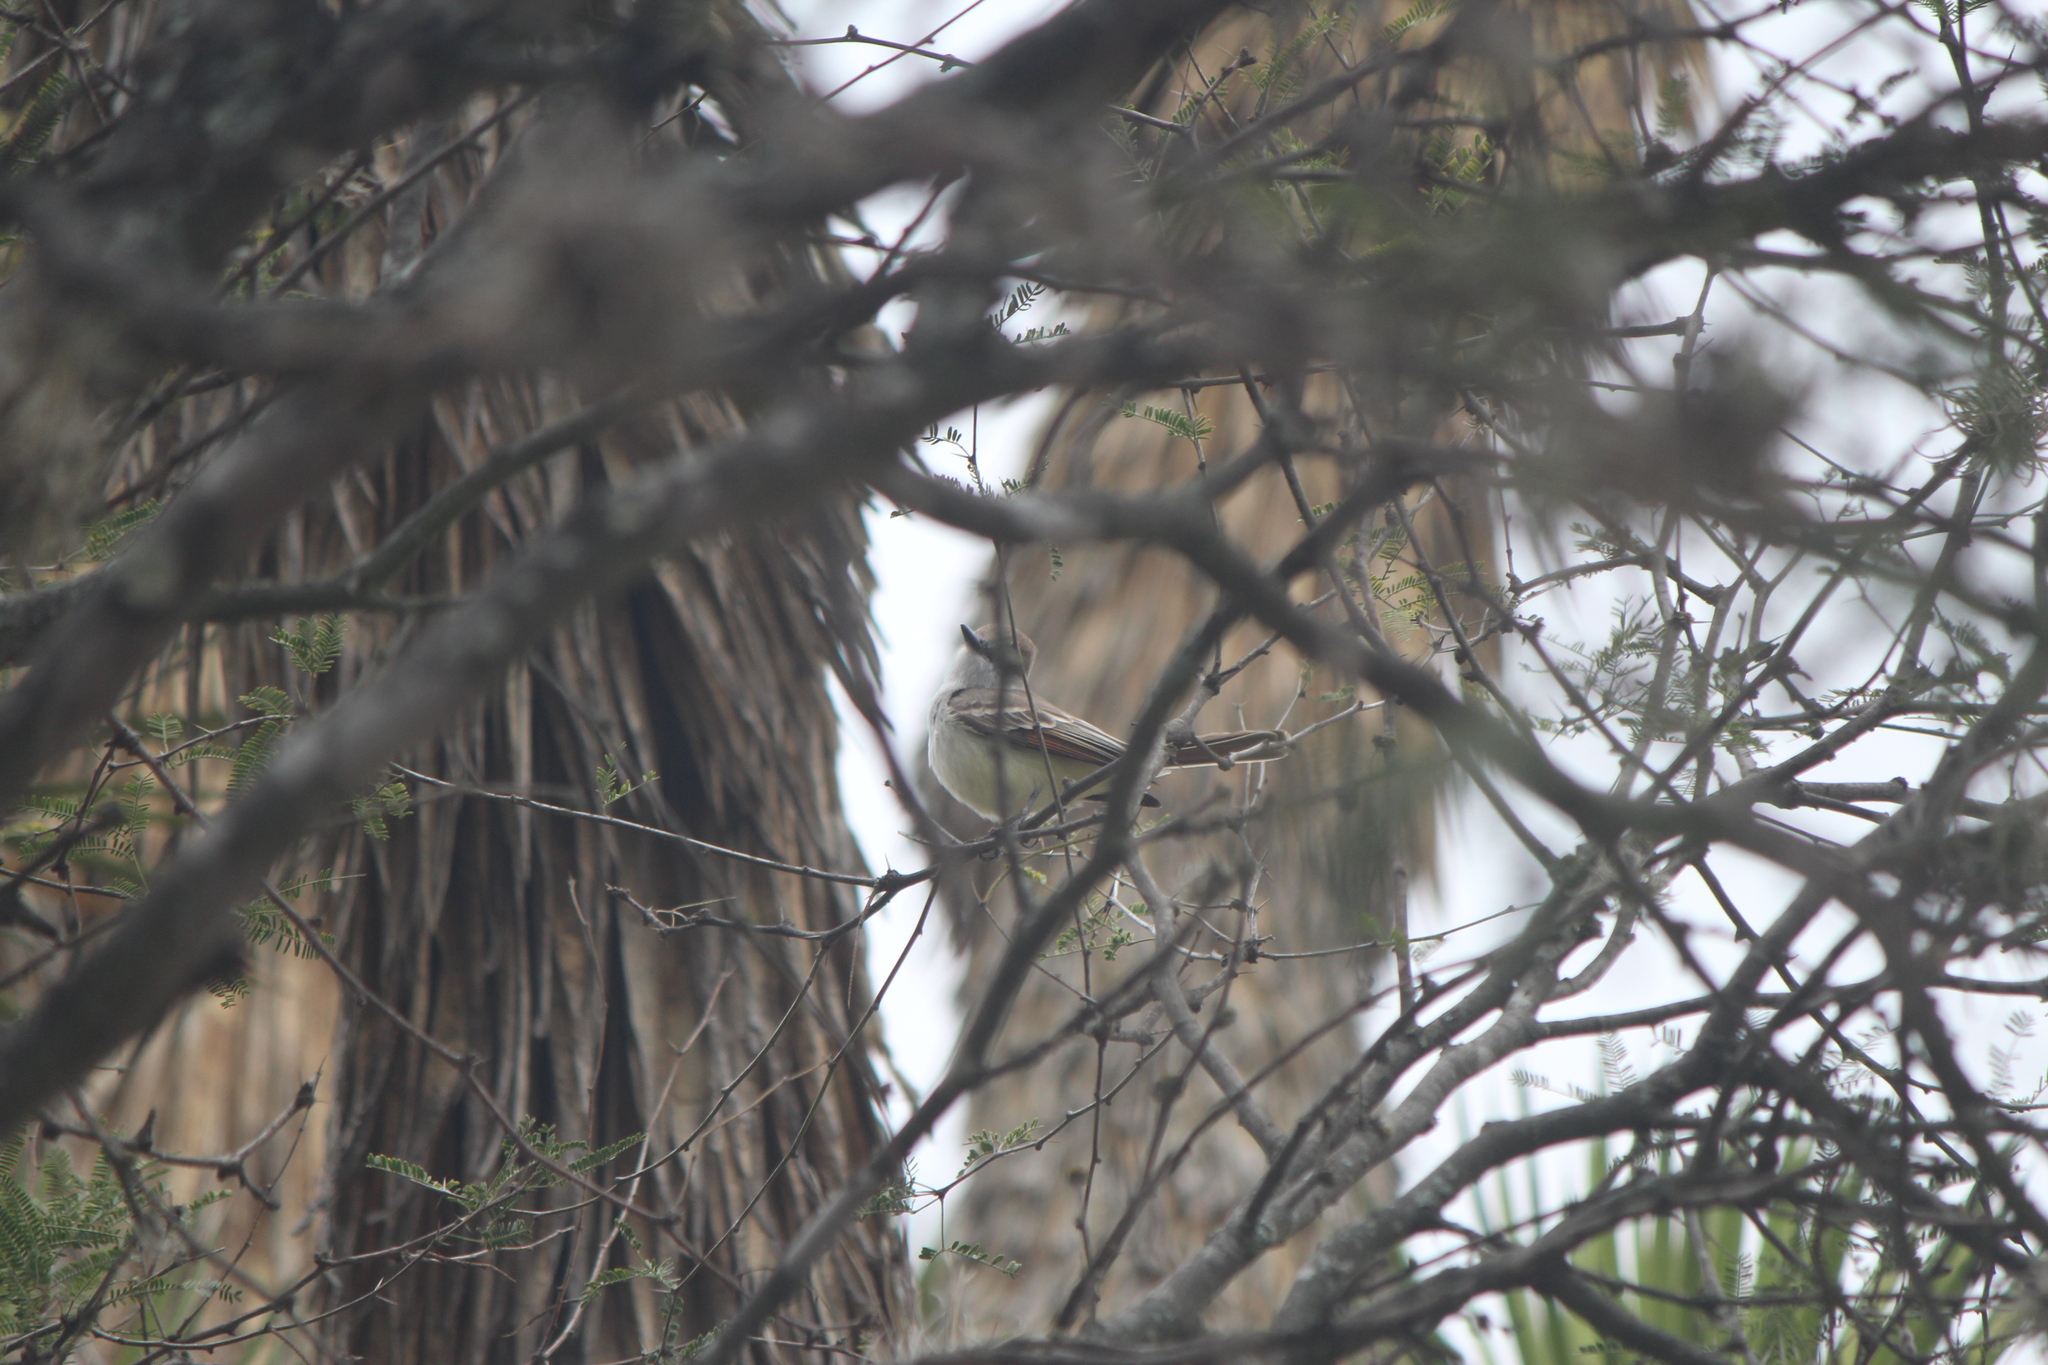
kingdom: Animalia
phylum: Chordata
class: Aves
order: Passeriformes
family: Tyrannidae
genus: Myiarchus
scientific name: Myiarchus cinerascens
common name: Ash-throated flycatcher
